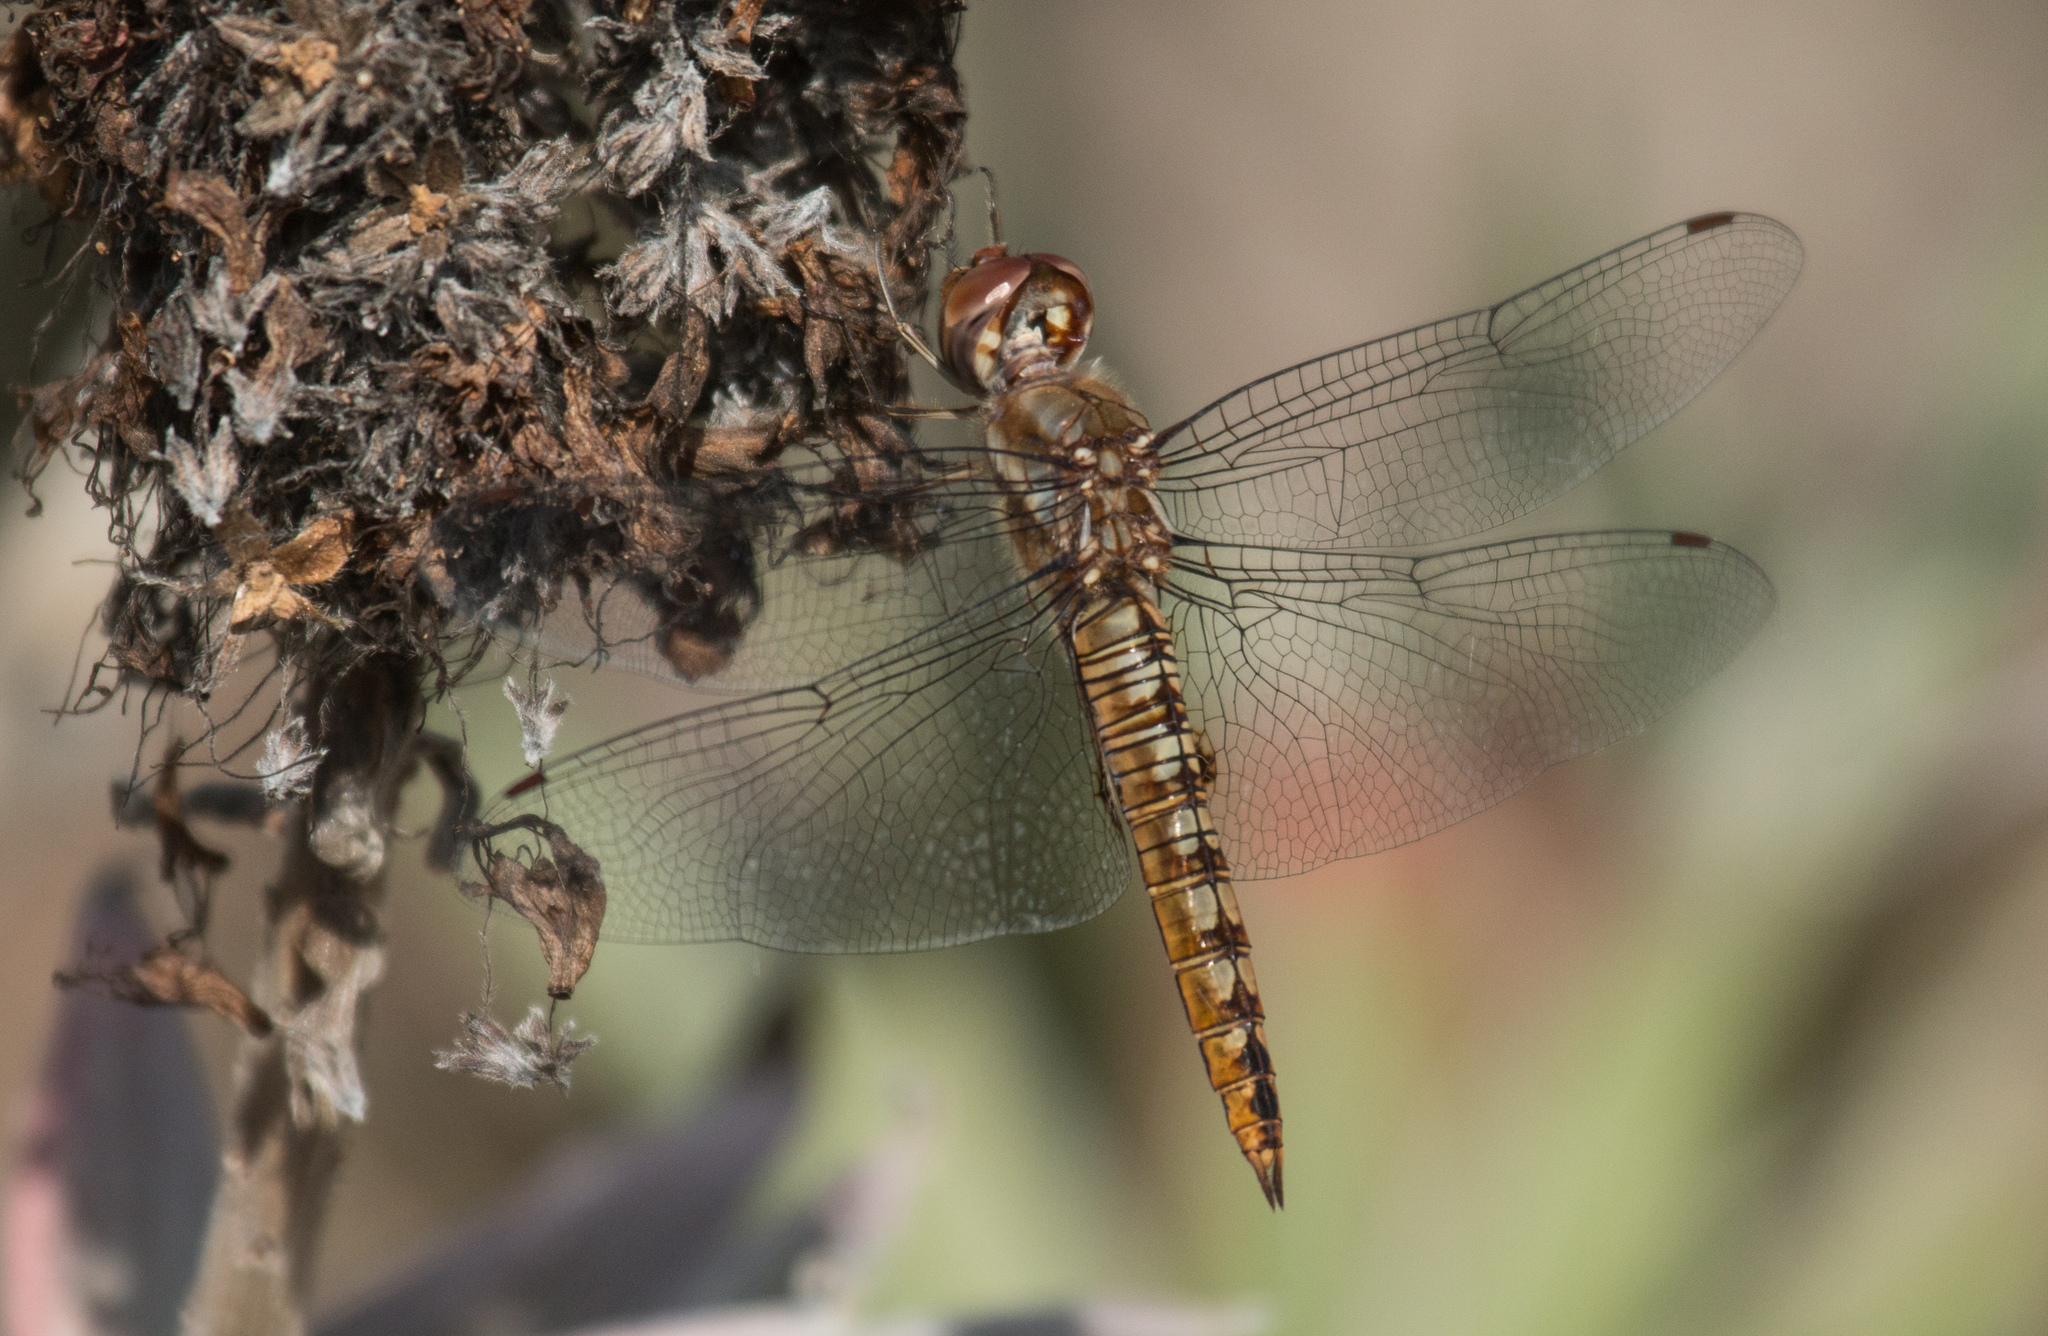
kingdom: Animalia
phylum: Arthropoda
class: Insecta
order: Odonata
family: Libellulidae
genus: Pantala
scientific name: Pantala hymenaea
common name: Spot-winged glider
